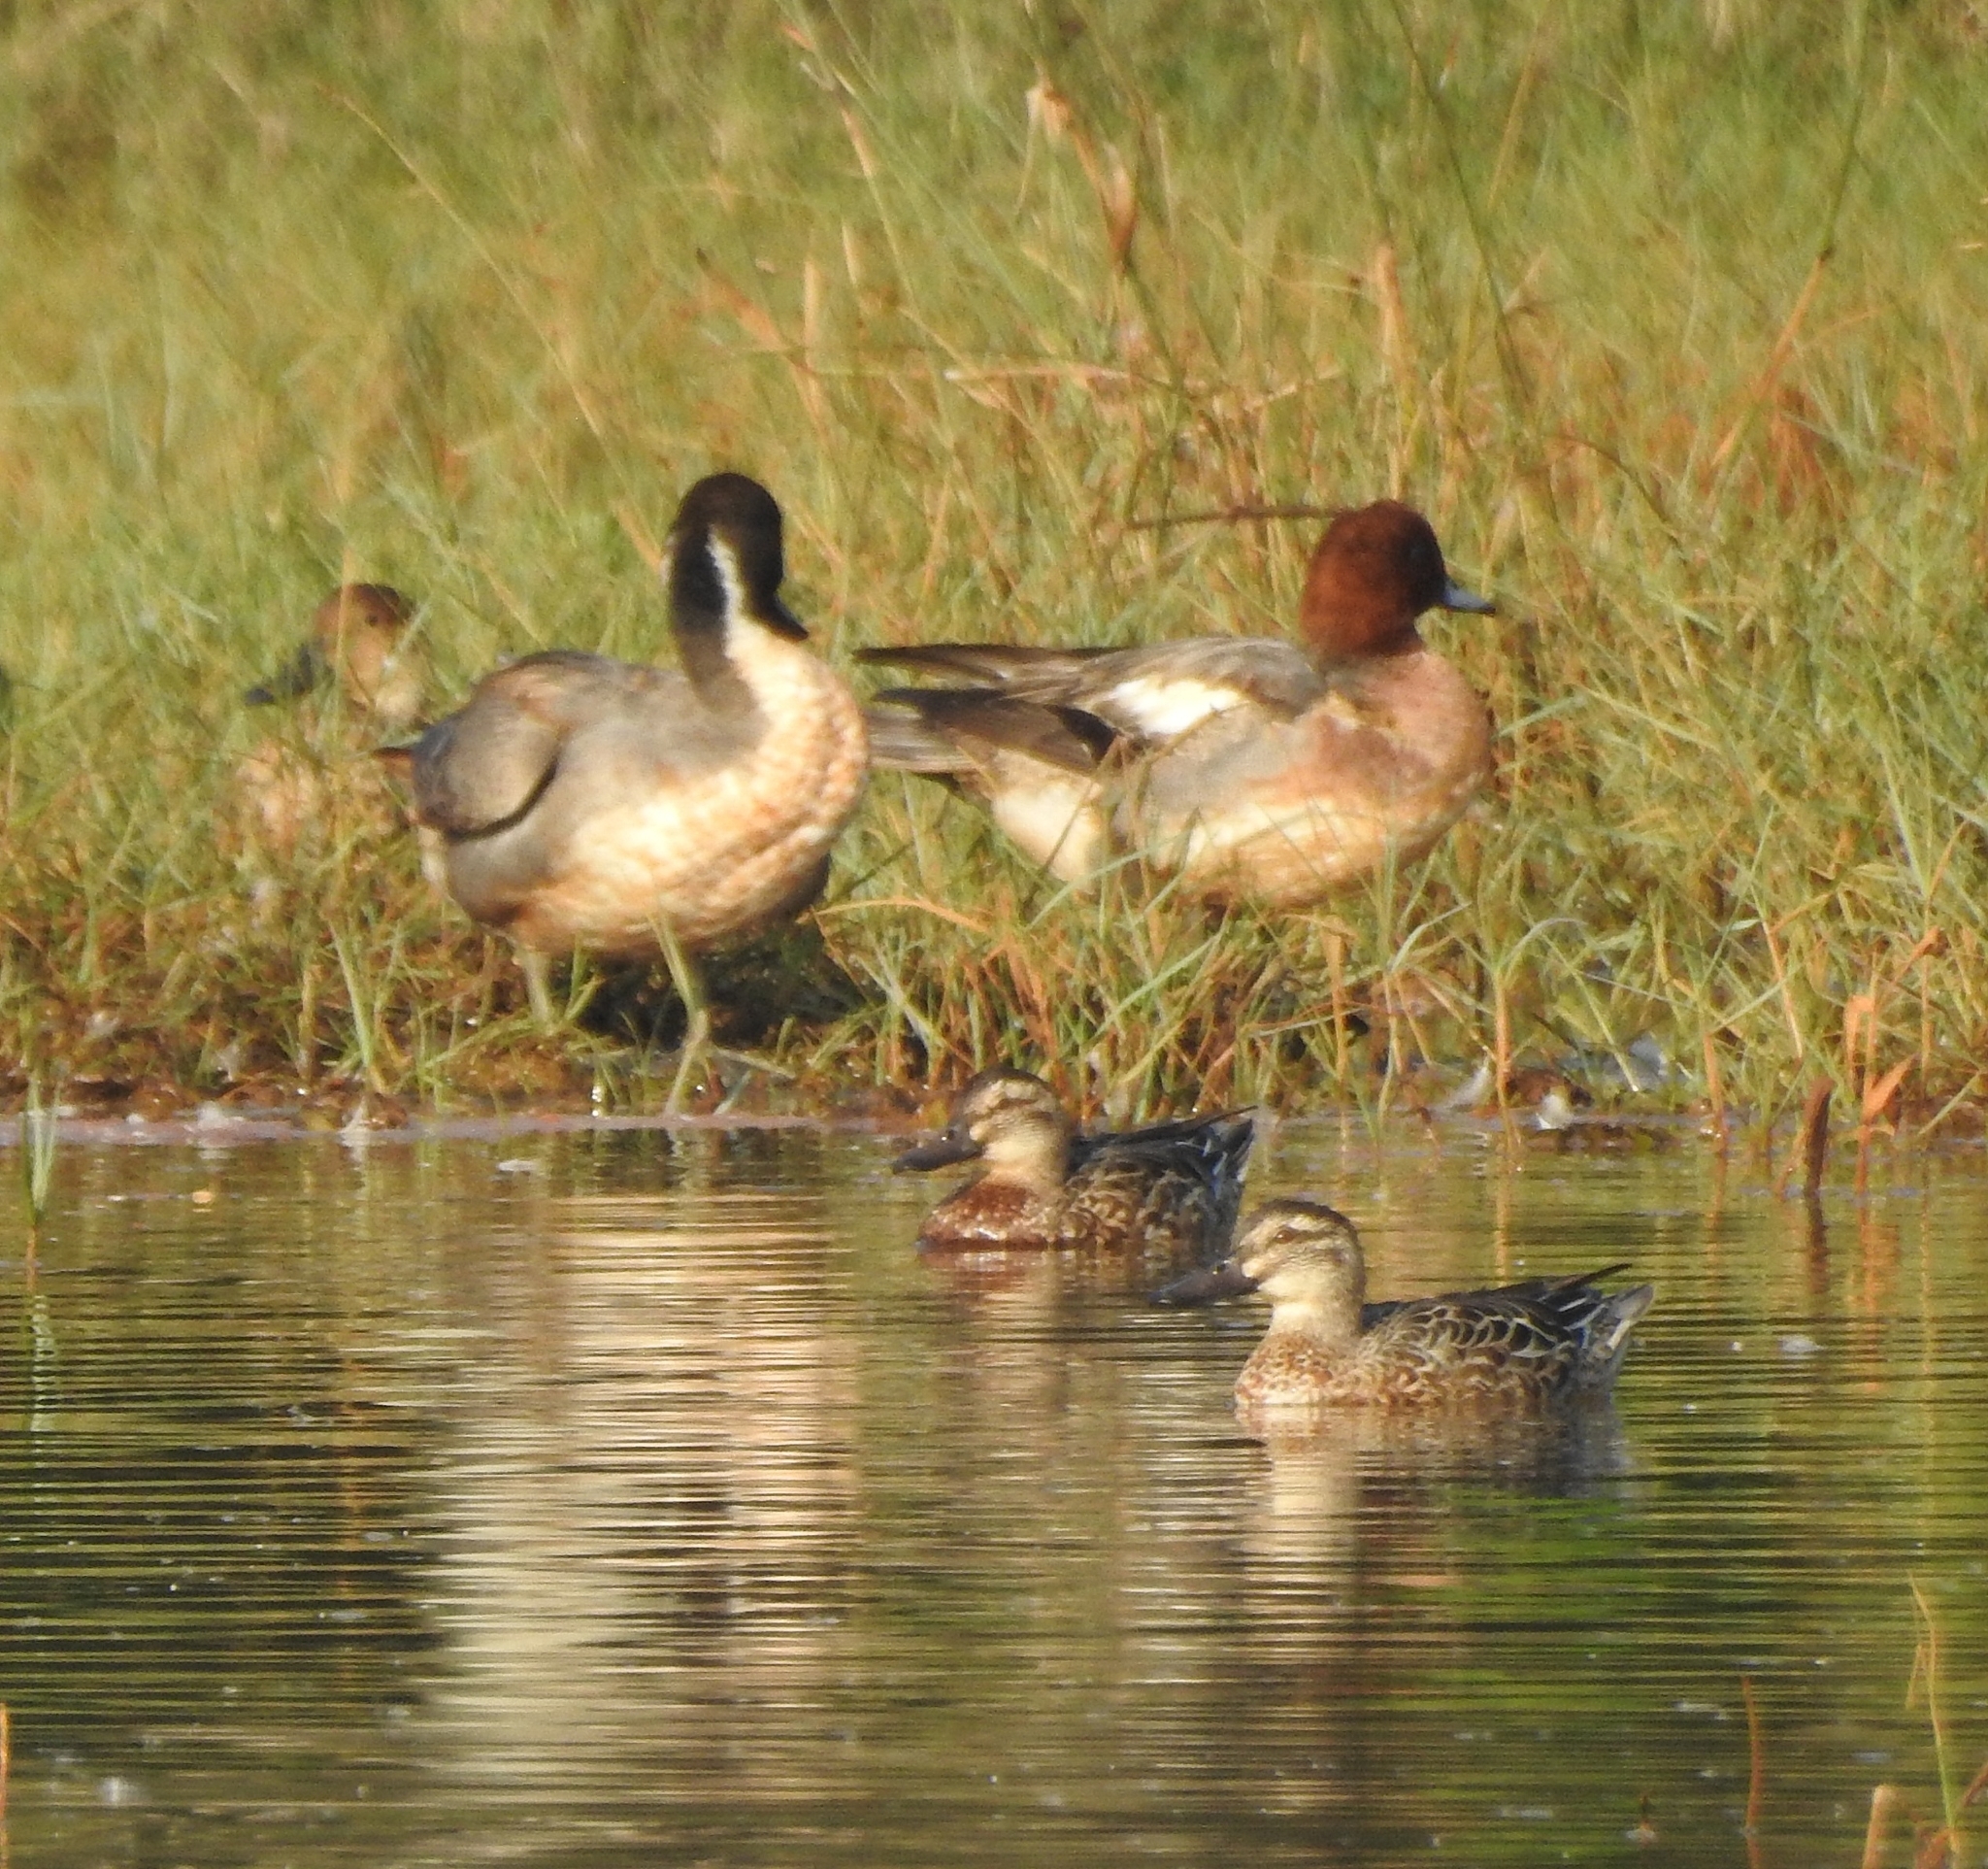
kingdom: Animalia
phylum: Chordata
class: Aves
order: Anseriformes
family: Anatidae
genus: Spatula
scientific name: Spatula querquedula
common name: Garganey
